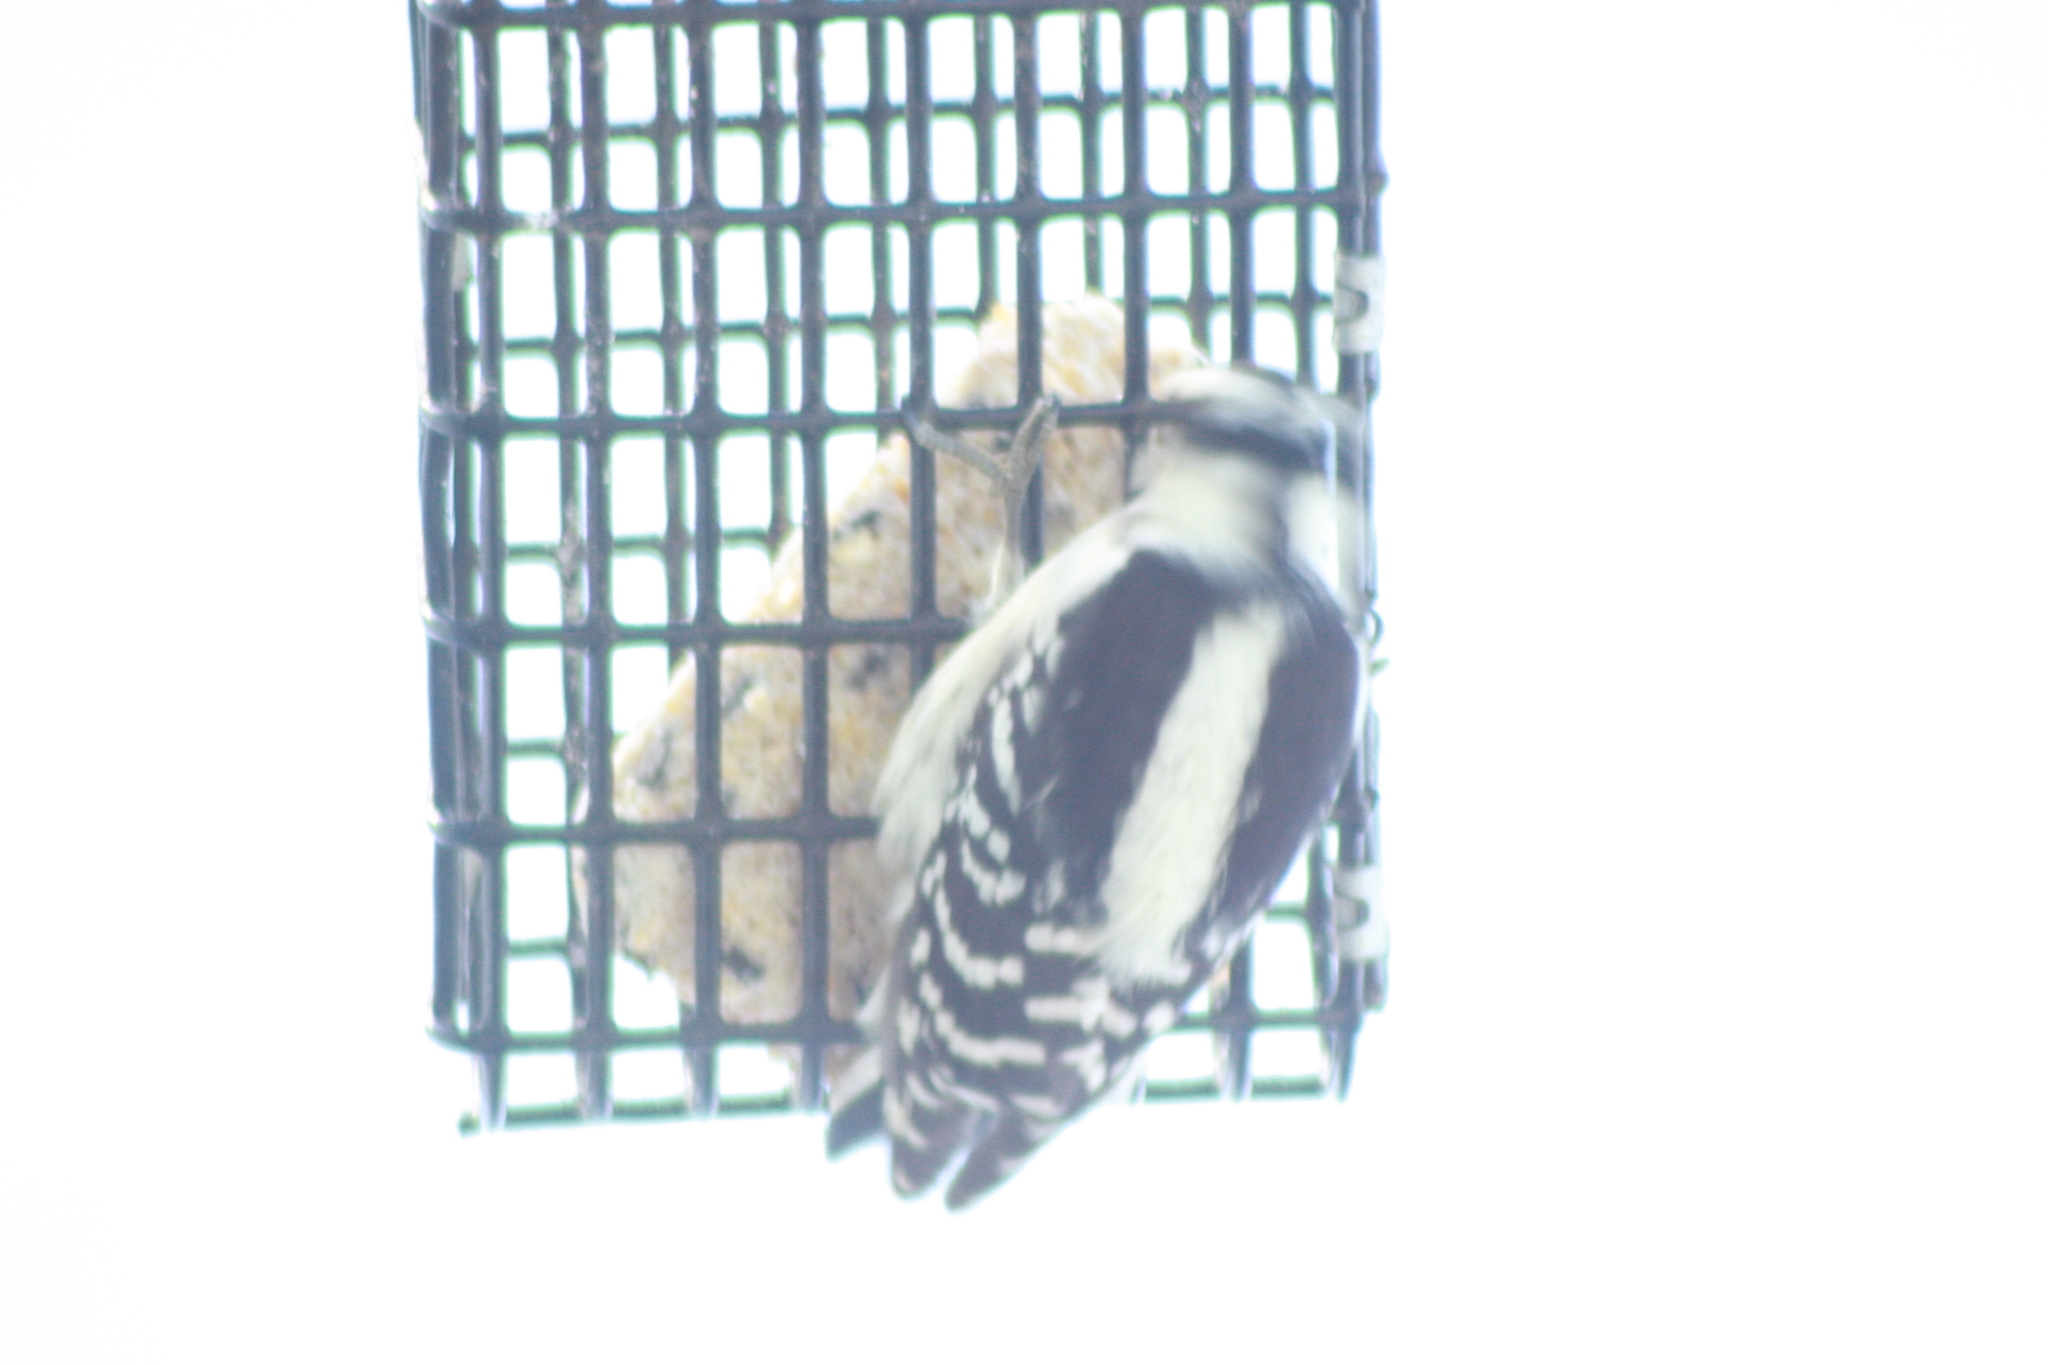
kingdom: Animalia
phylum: Chordata
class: Aves
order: Piciformes
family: Picidae
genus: Dryobates
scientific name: Dryobates pubescens
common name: Downy woodpecker
